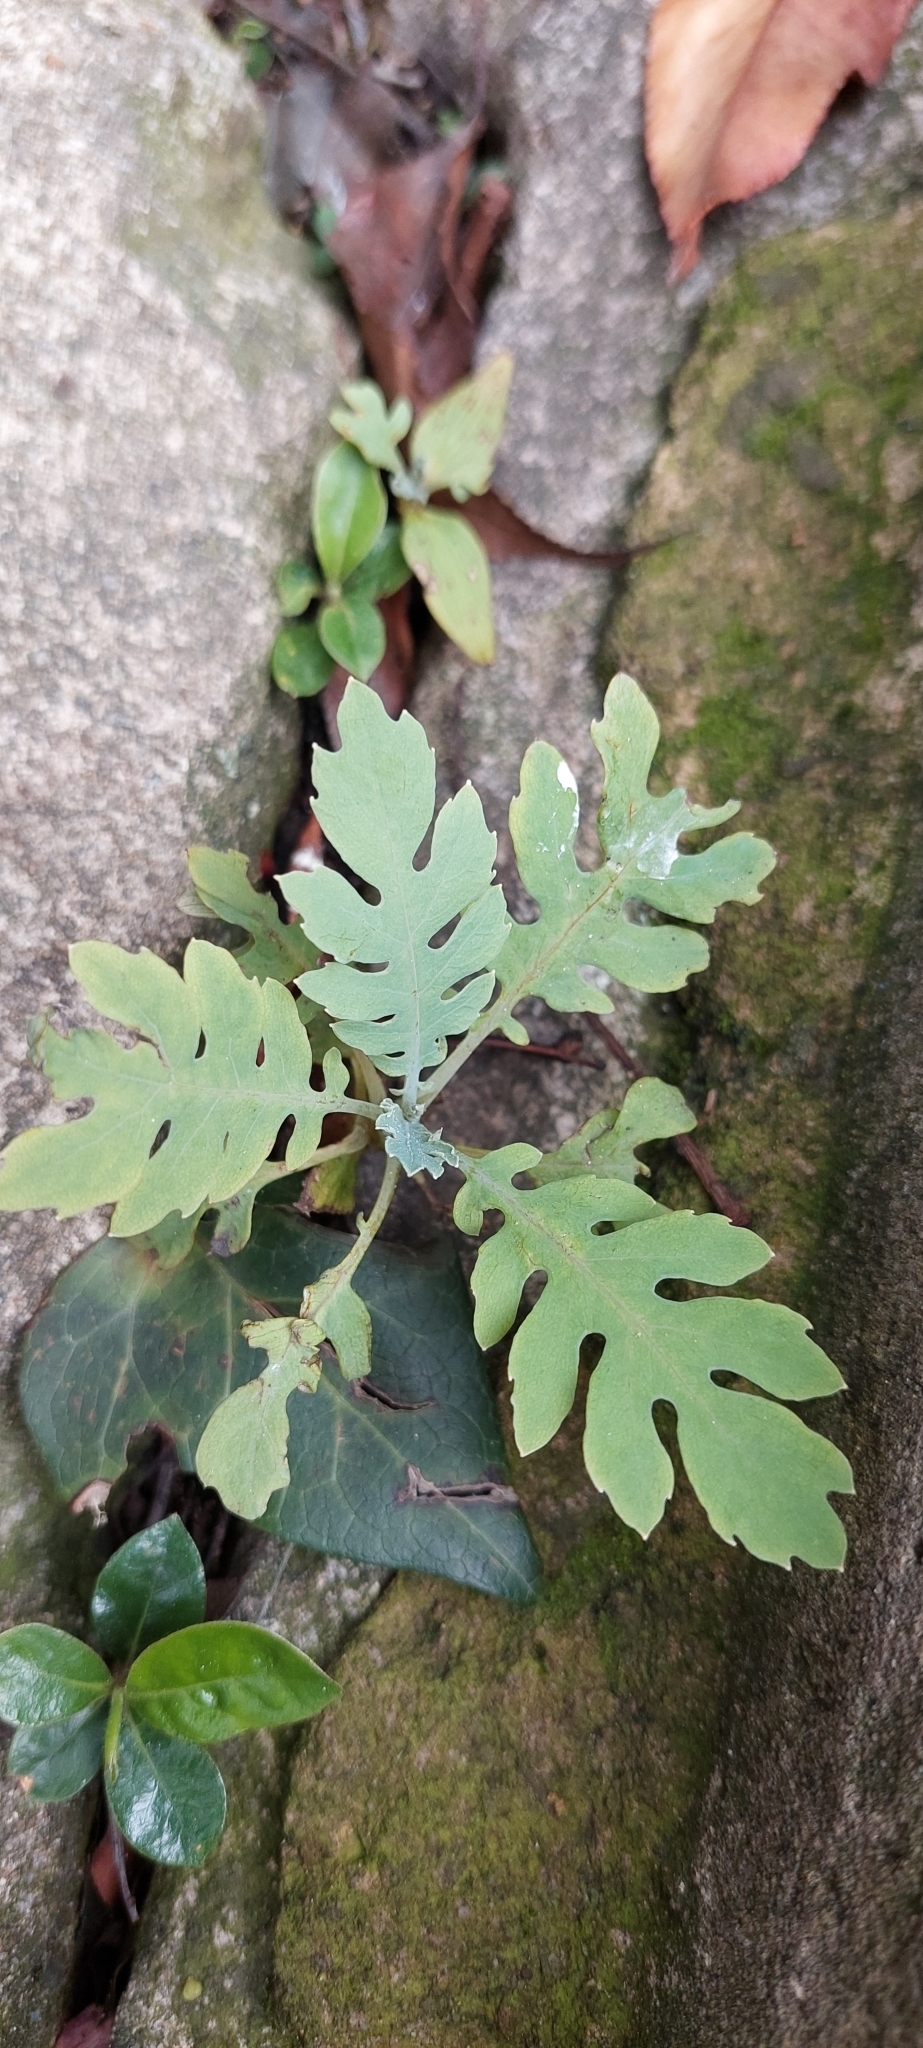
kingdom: Plantae
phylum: Tracheophyta
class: Magnoliopsida
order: Ranunculales
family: Papaveraceae
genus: Bocconia
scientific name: Bocconia frutescens
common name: Tree poppy
